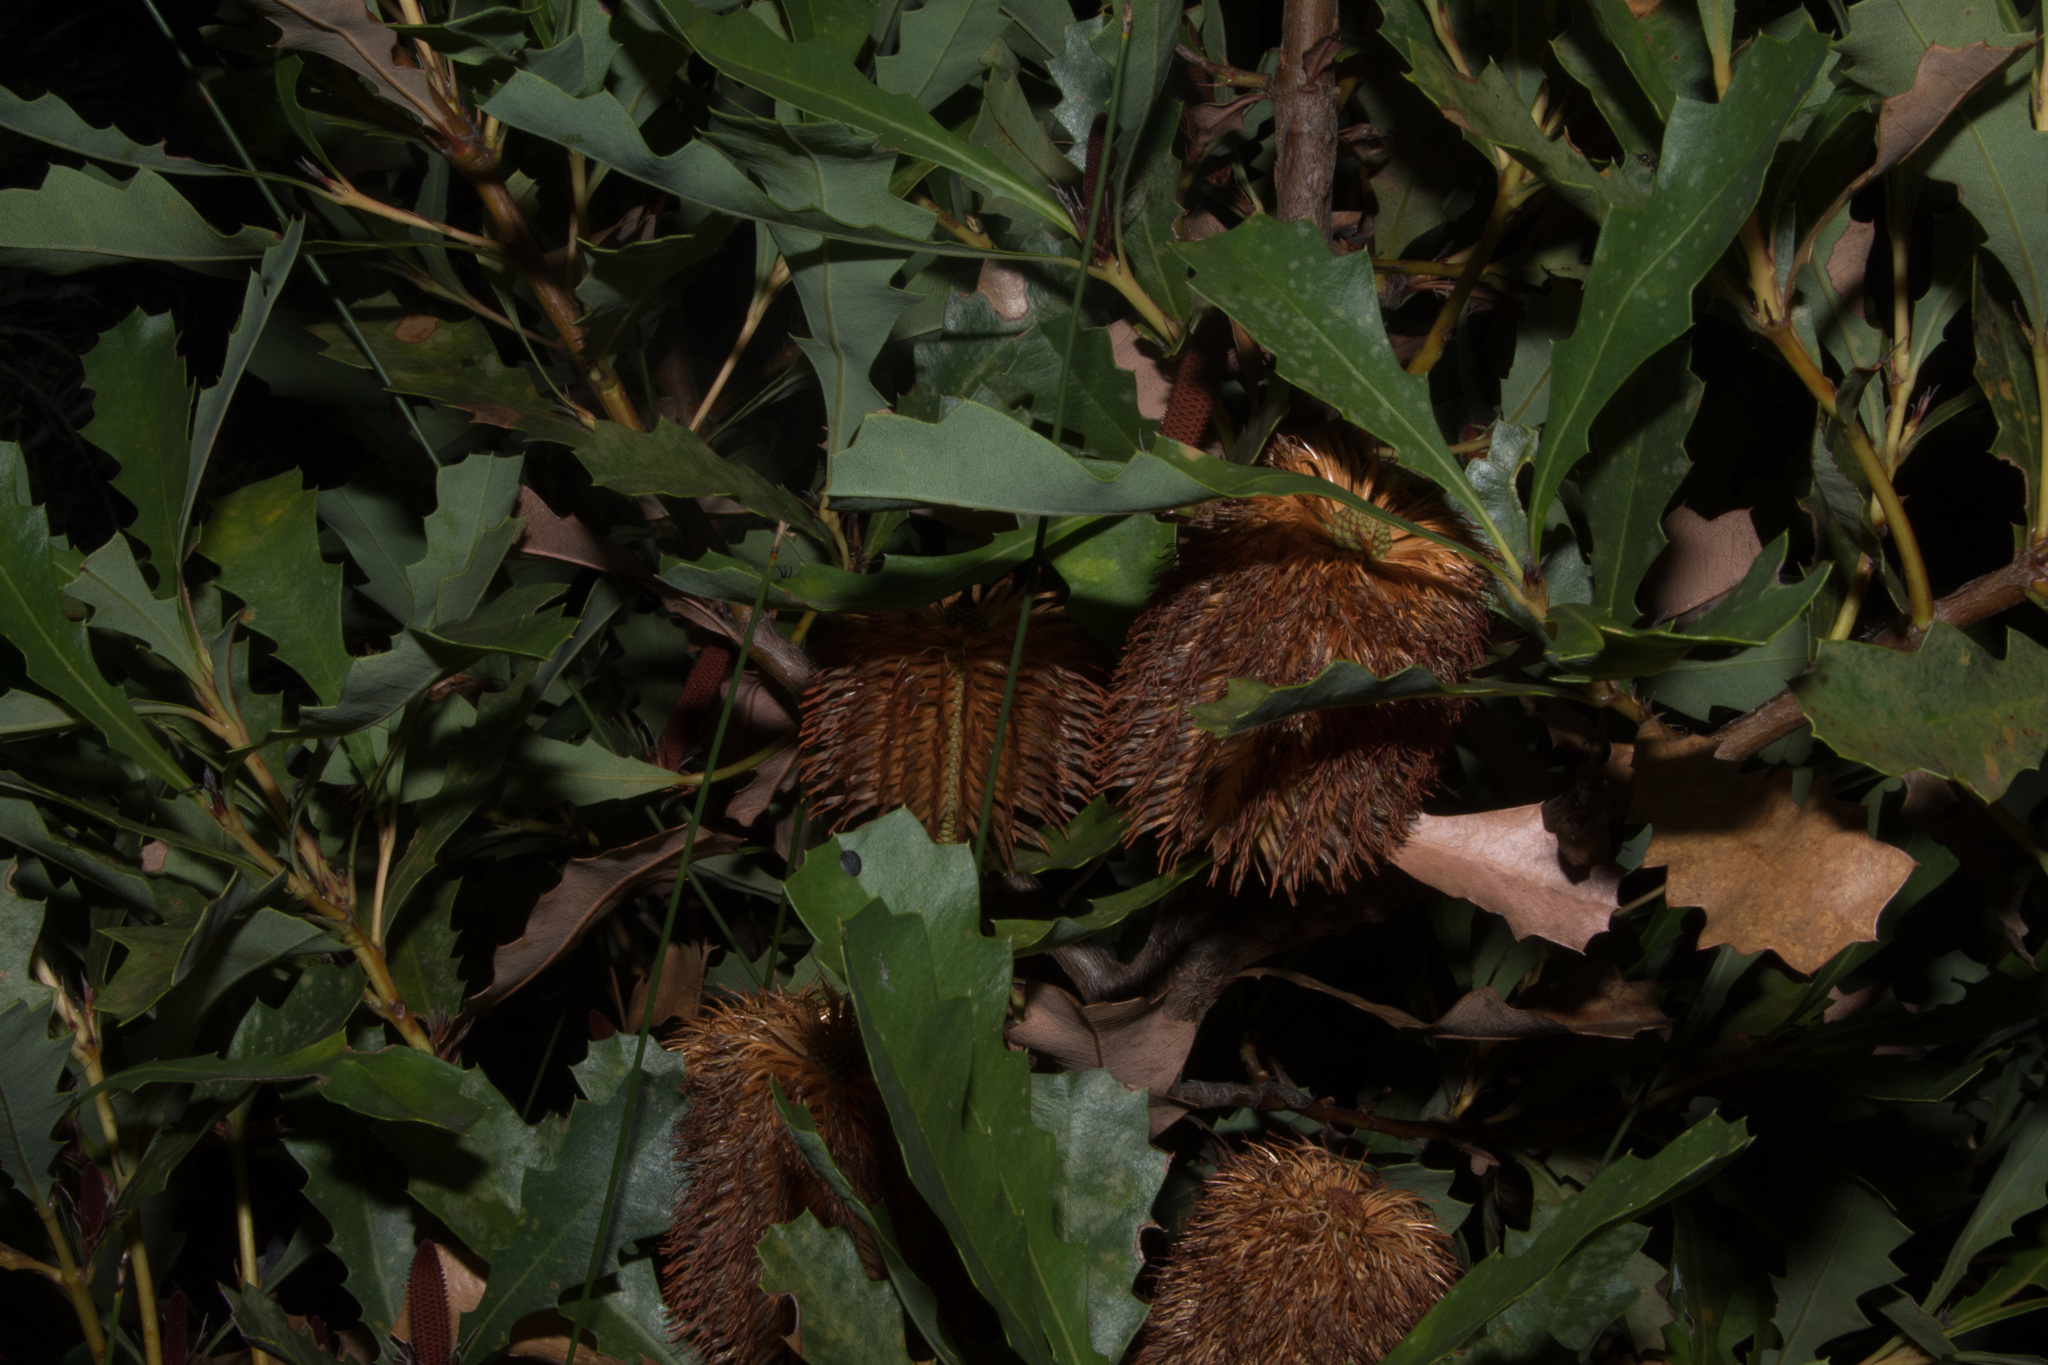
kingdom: Plantae
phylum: Tracheophyta
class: Magnoliopsida
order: Proteales
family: Proteaceae
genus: Banksia
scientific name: Banksia quercifolia
